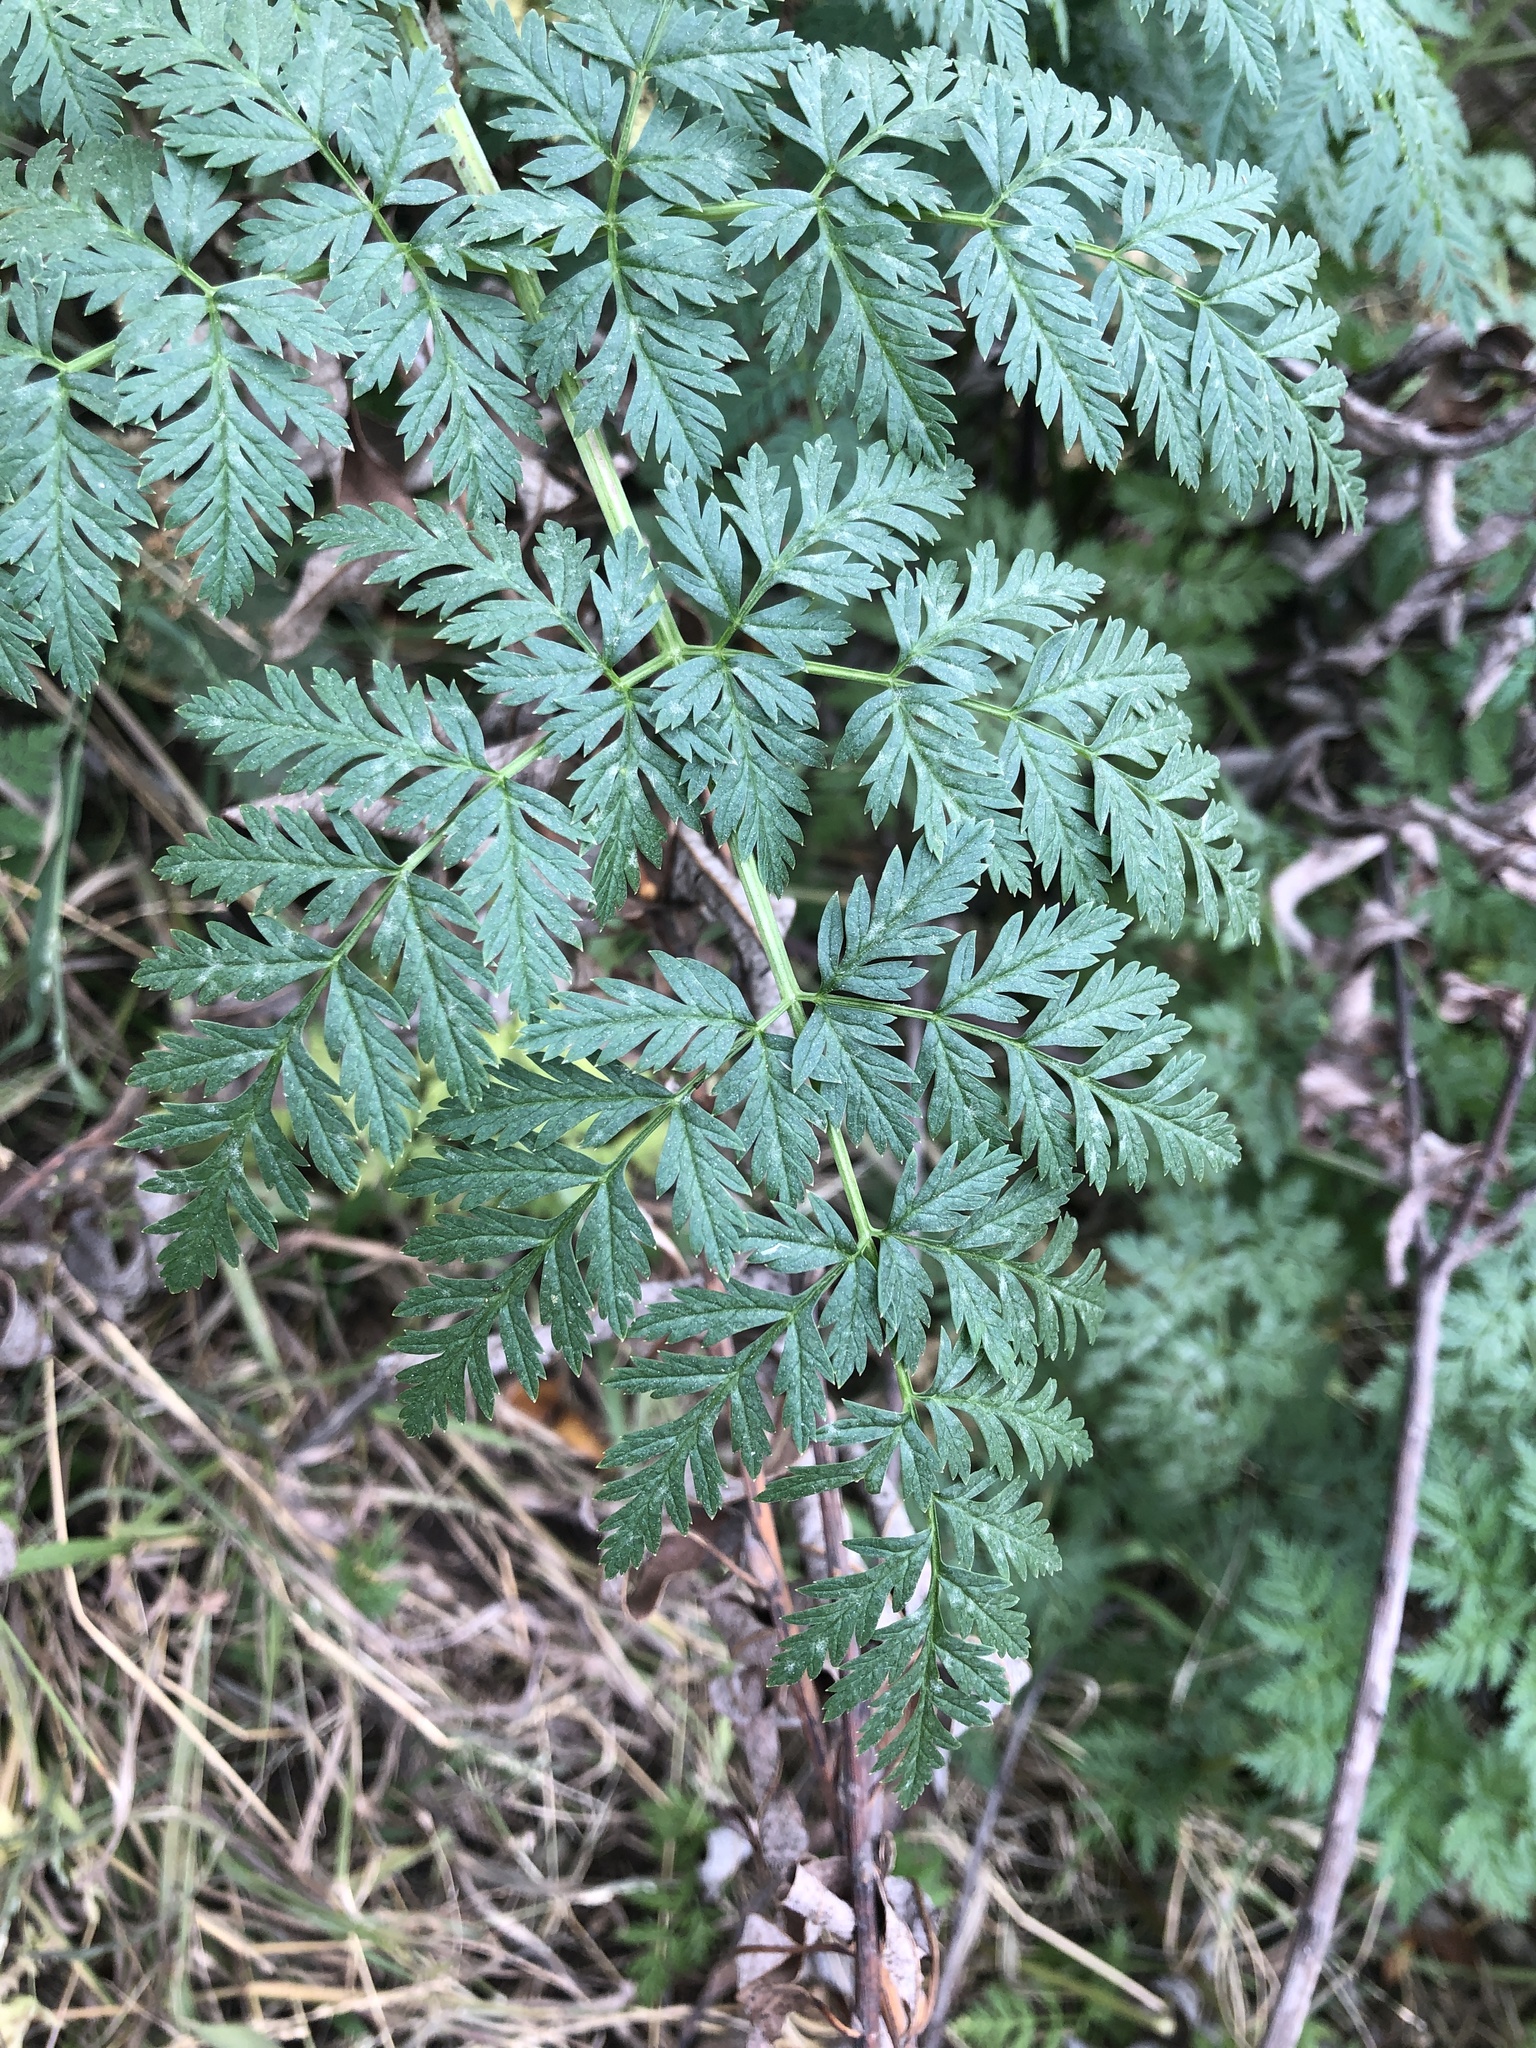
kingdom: Plantae
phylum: Tracheophyta
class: Magnoliopsida
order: Apiales
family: Apiaceae
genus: Conium
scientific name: Conium maculatum
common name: Hemlock
